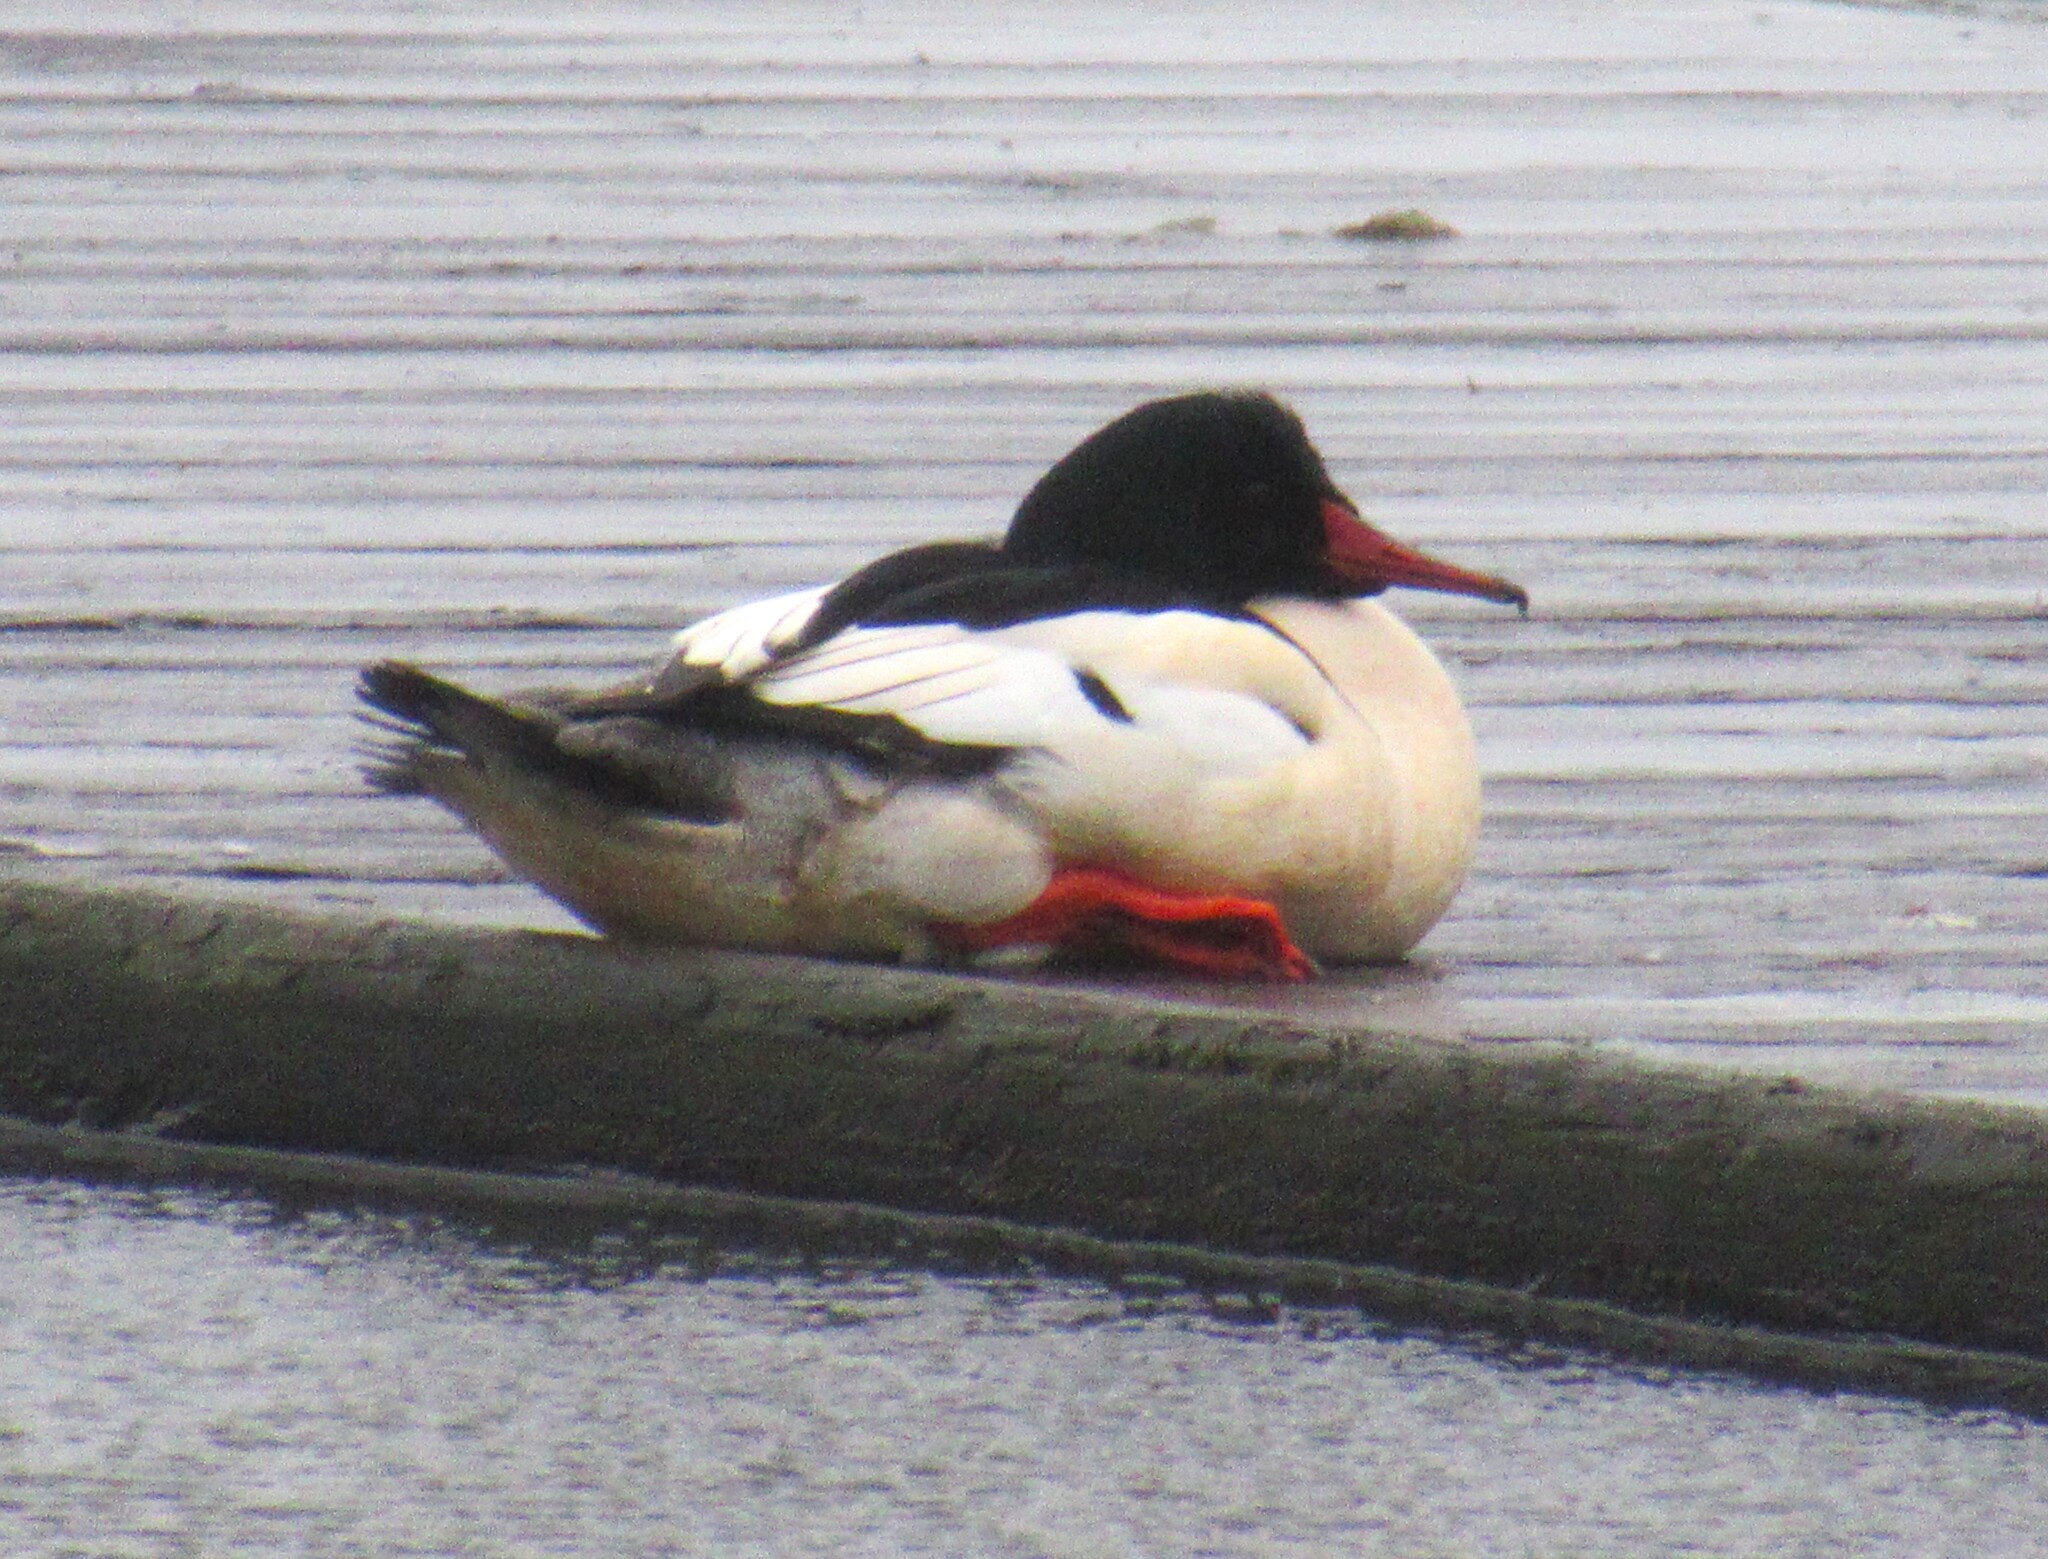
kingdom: Animalia
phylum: Chordata
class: Aves
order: Anseriformes
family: Anatidae
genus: Mergus
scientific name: Mergus merganser
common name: Common merganser
